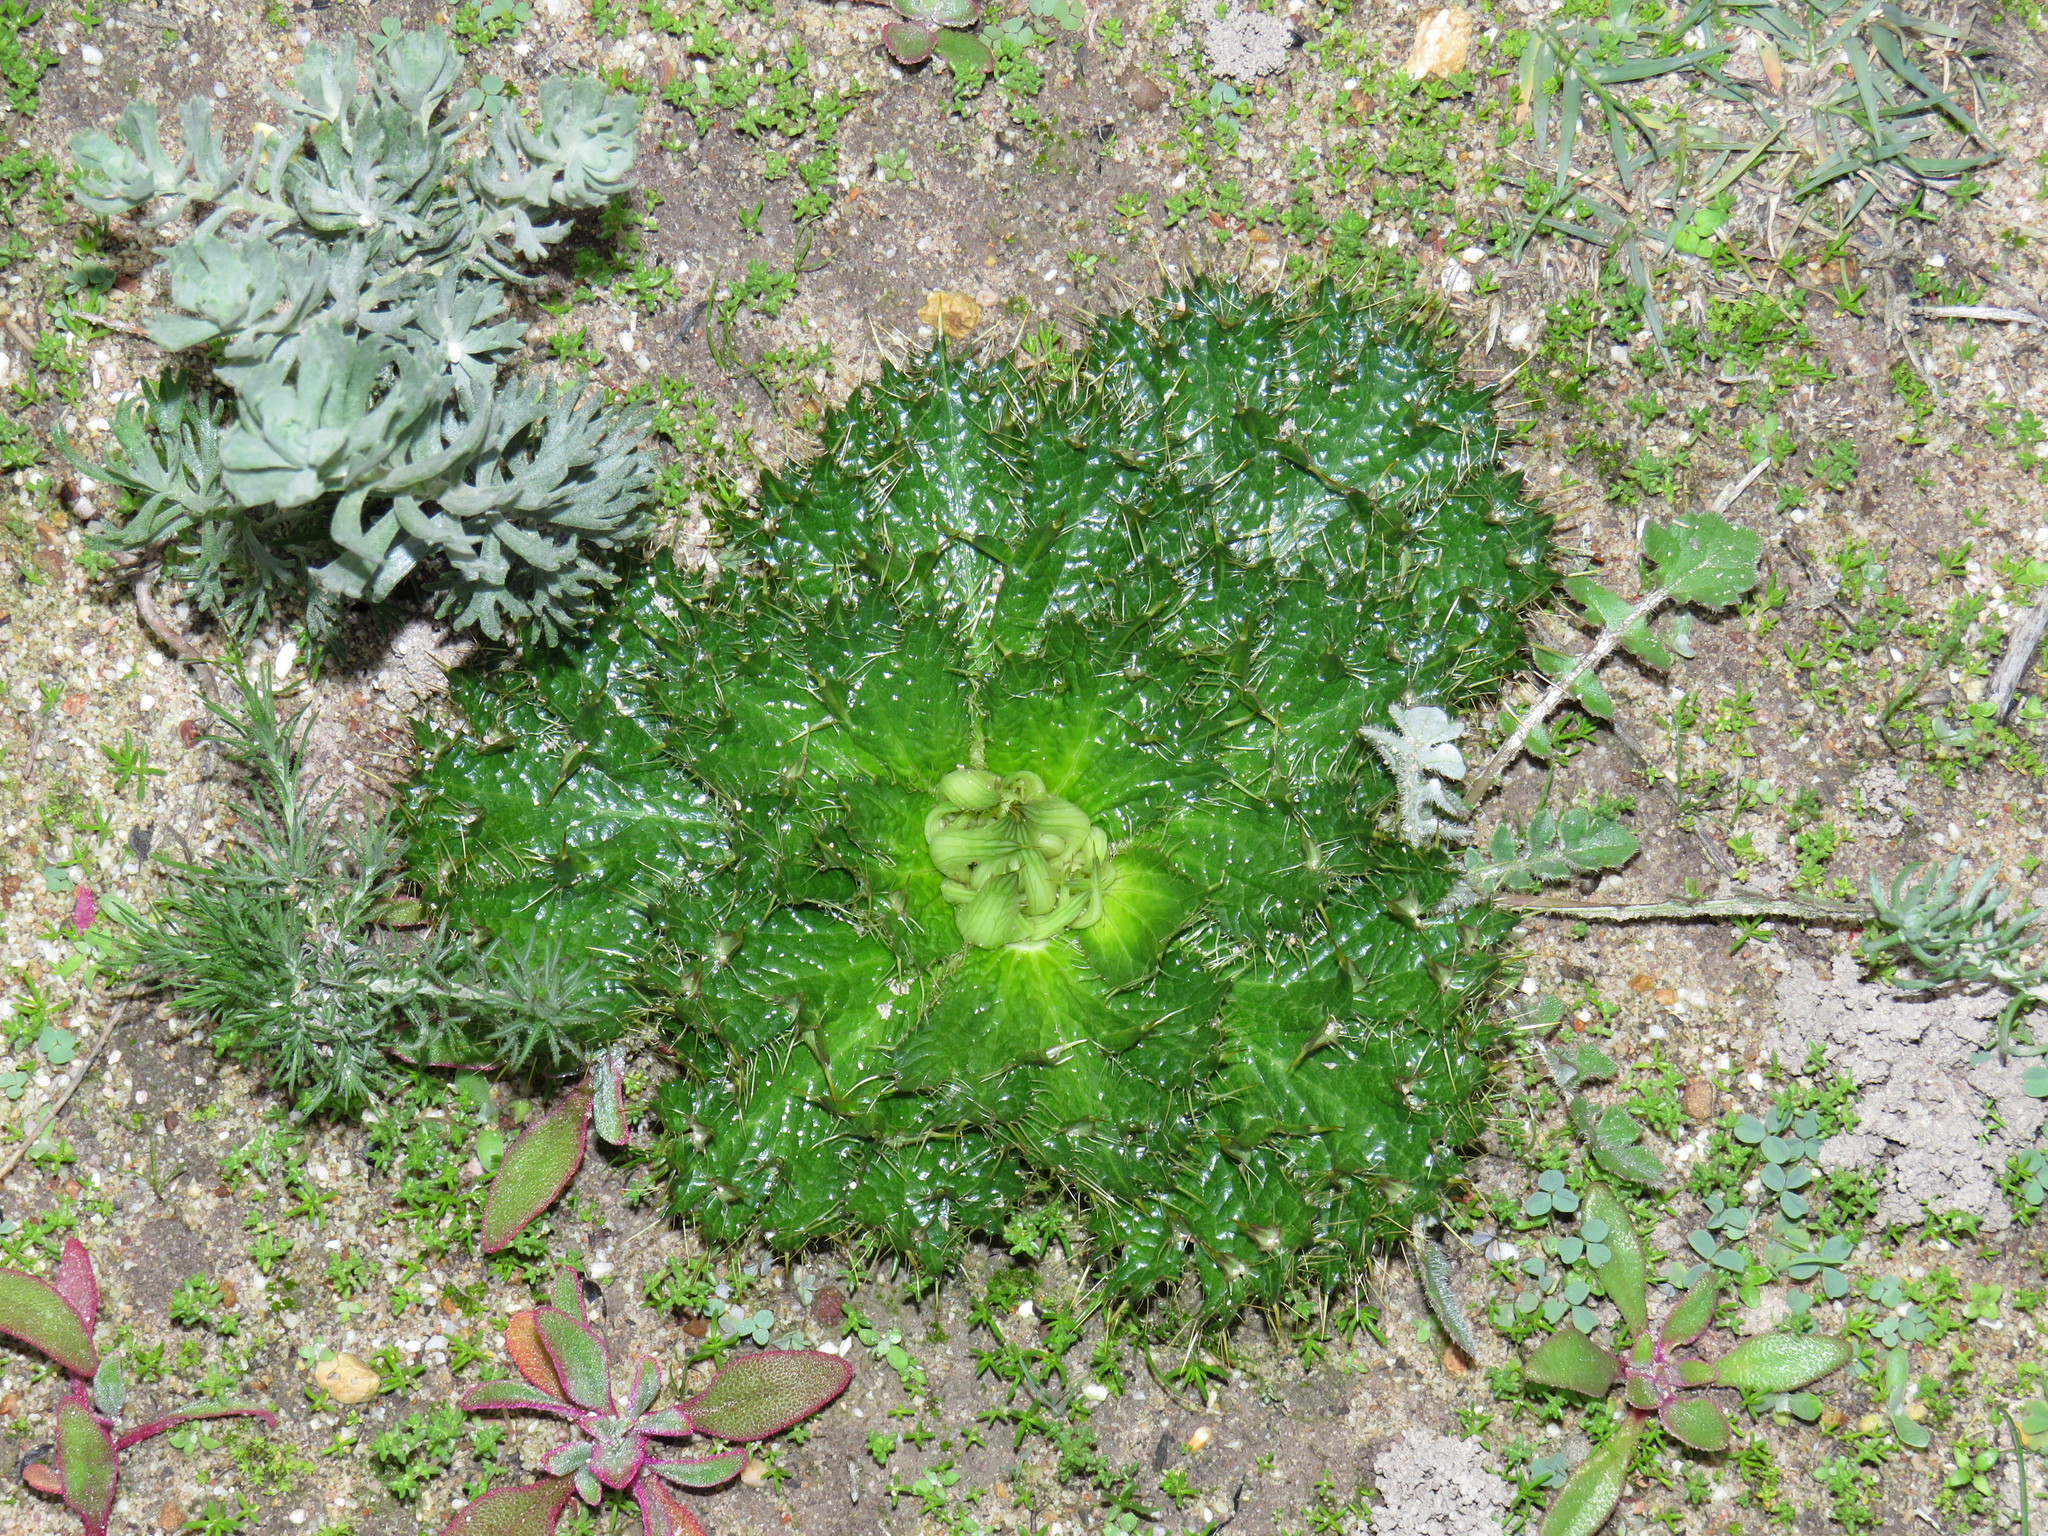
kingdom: Plantae
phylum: Tracheophyta
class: Magnoliopsida
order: Apiales
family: Apiaceae
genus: Arctopus
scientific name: Arctopus monacanthus
